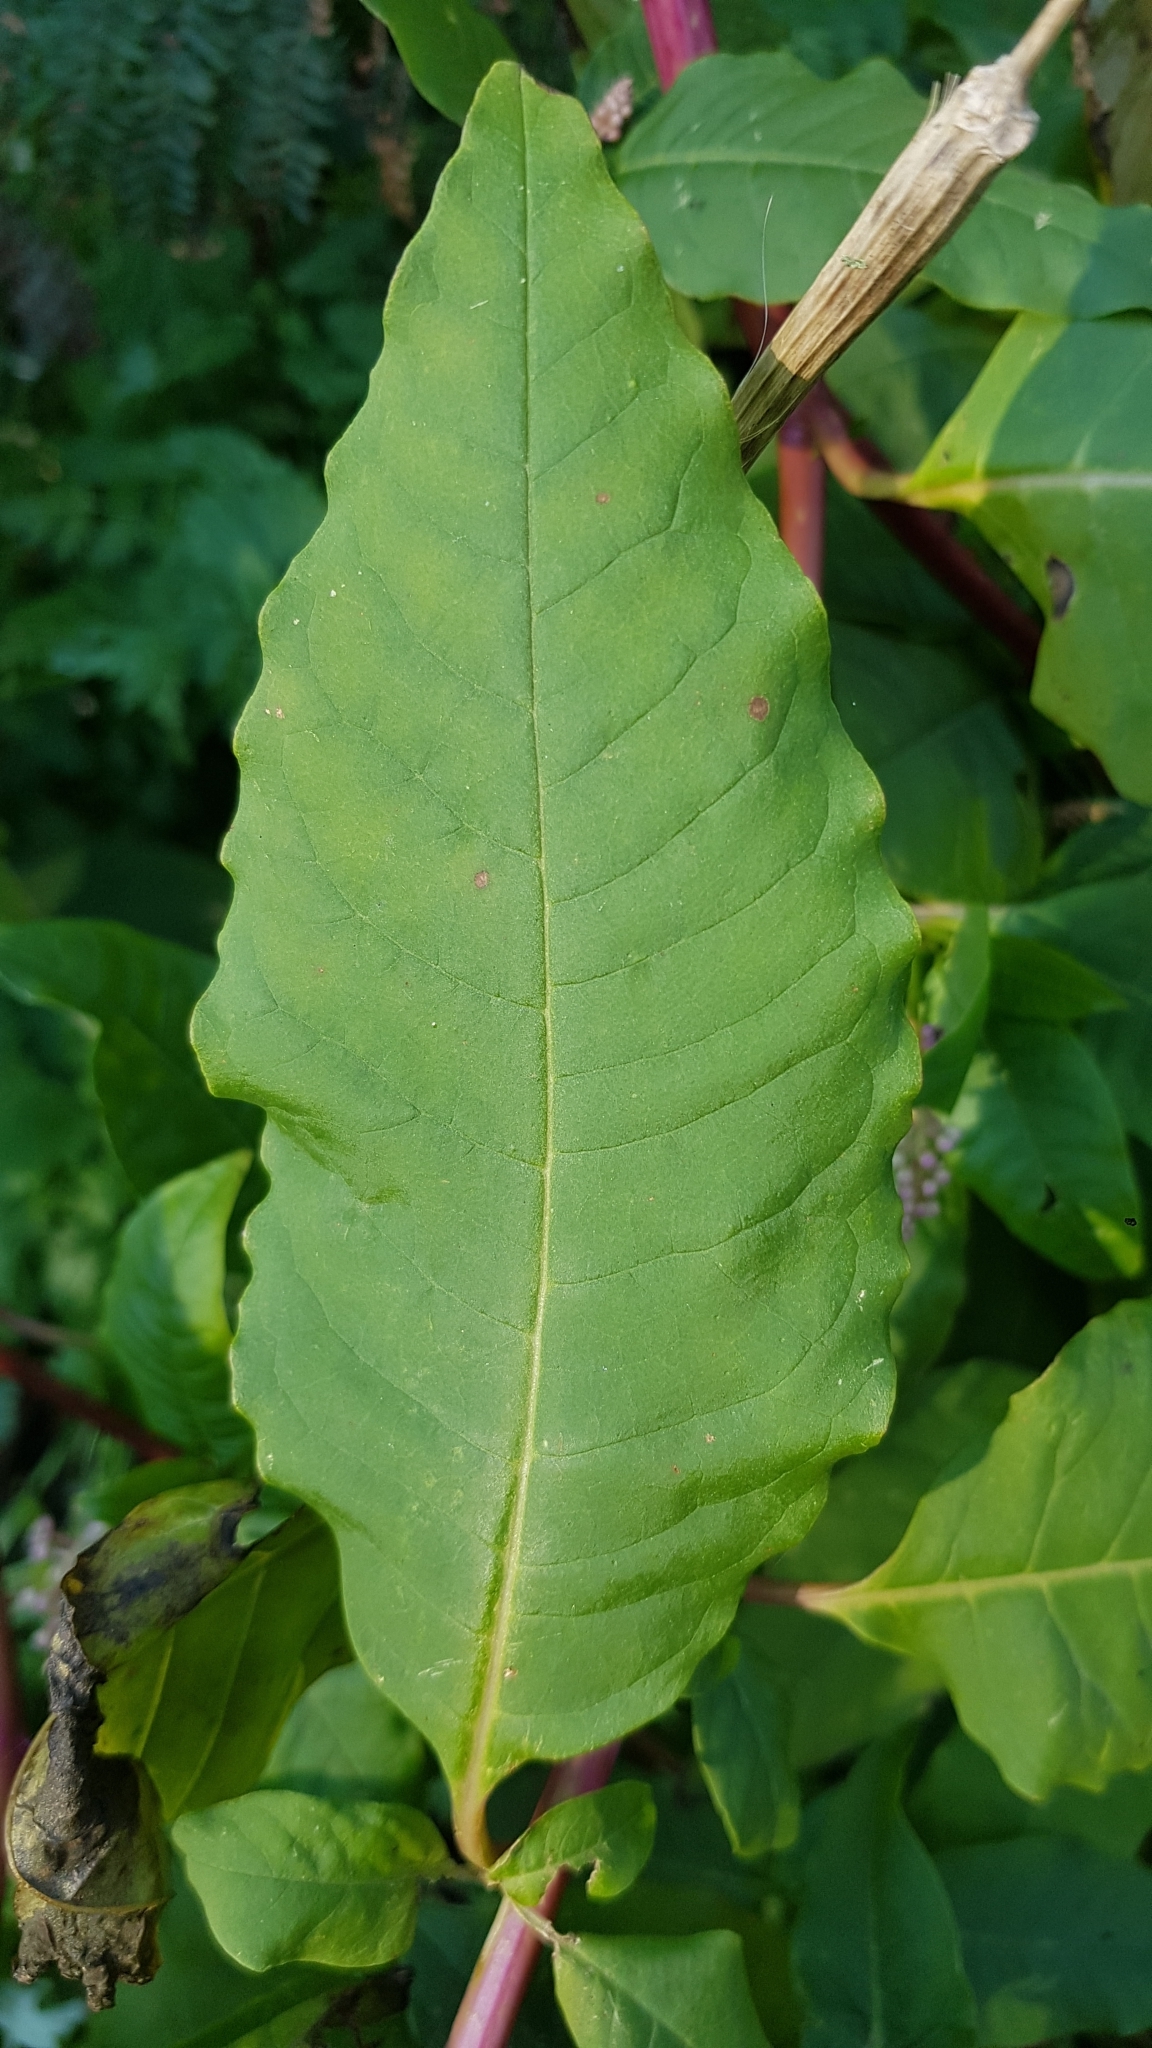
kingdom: Plantae
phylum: Tracheophyta
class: Magnoliopsida
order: Caryophyllales
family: Phytolaccaceae
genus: Phytolacca
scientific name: Phytolacca americana
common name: American pokeweed
